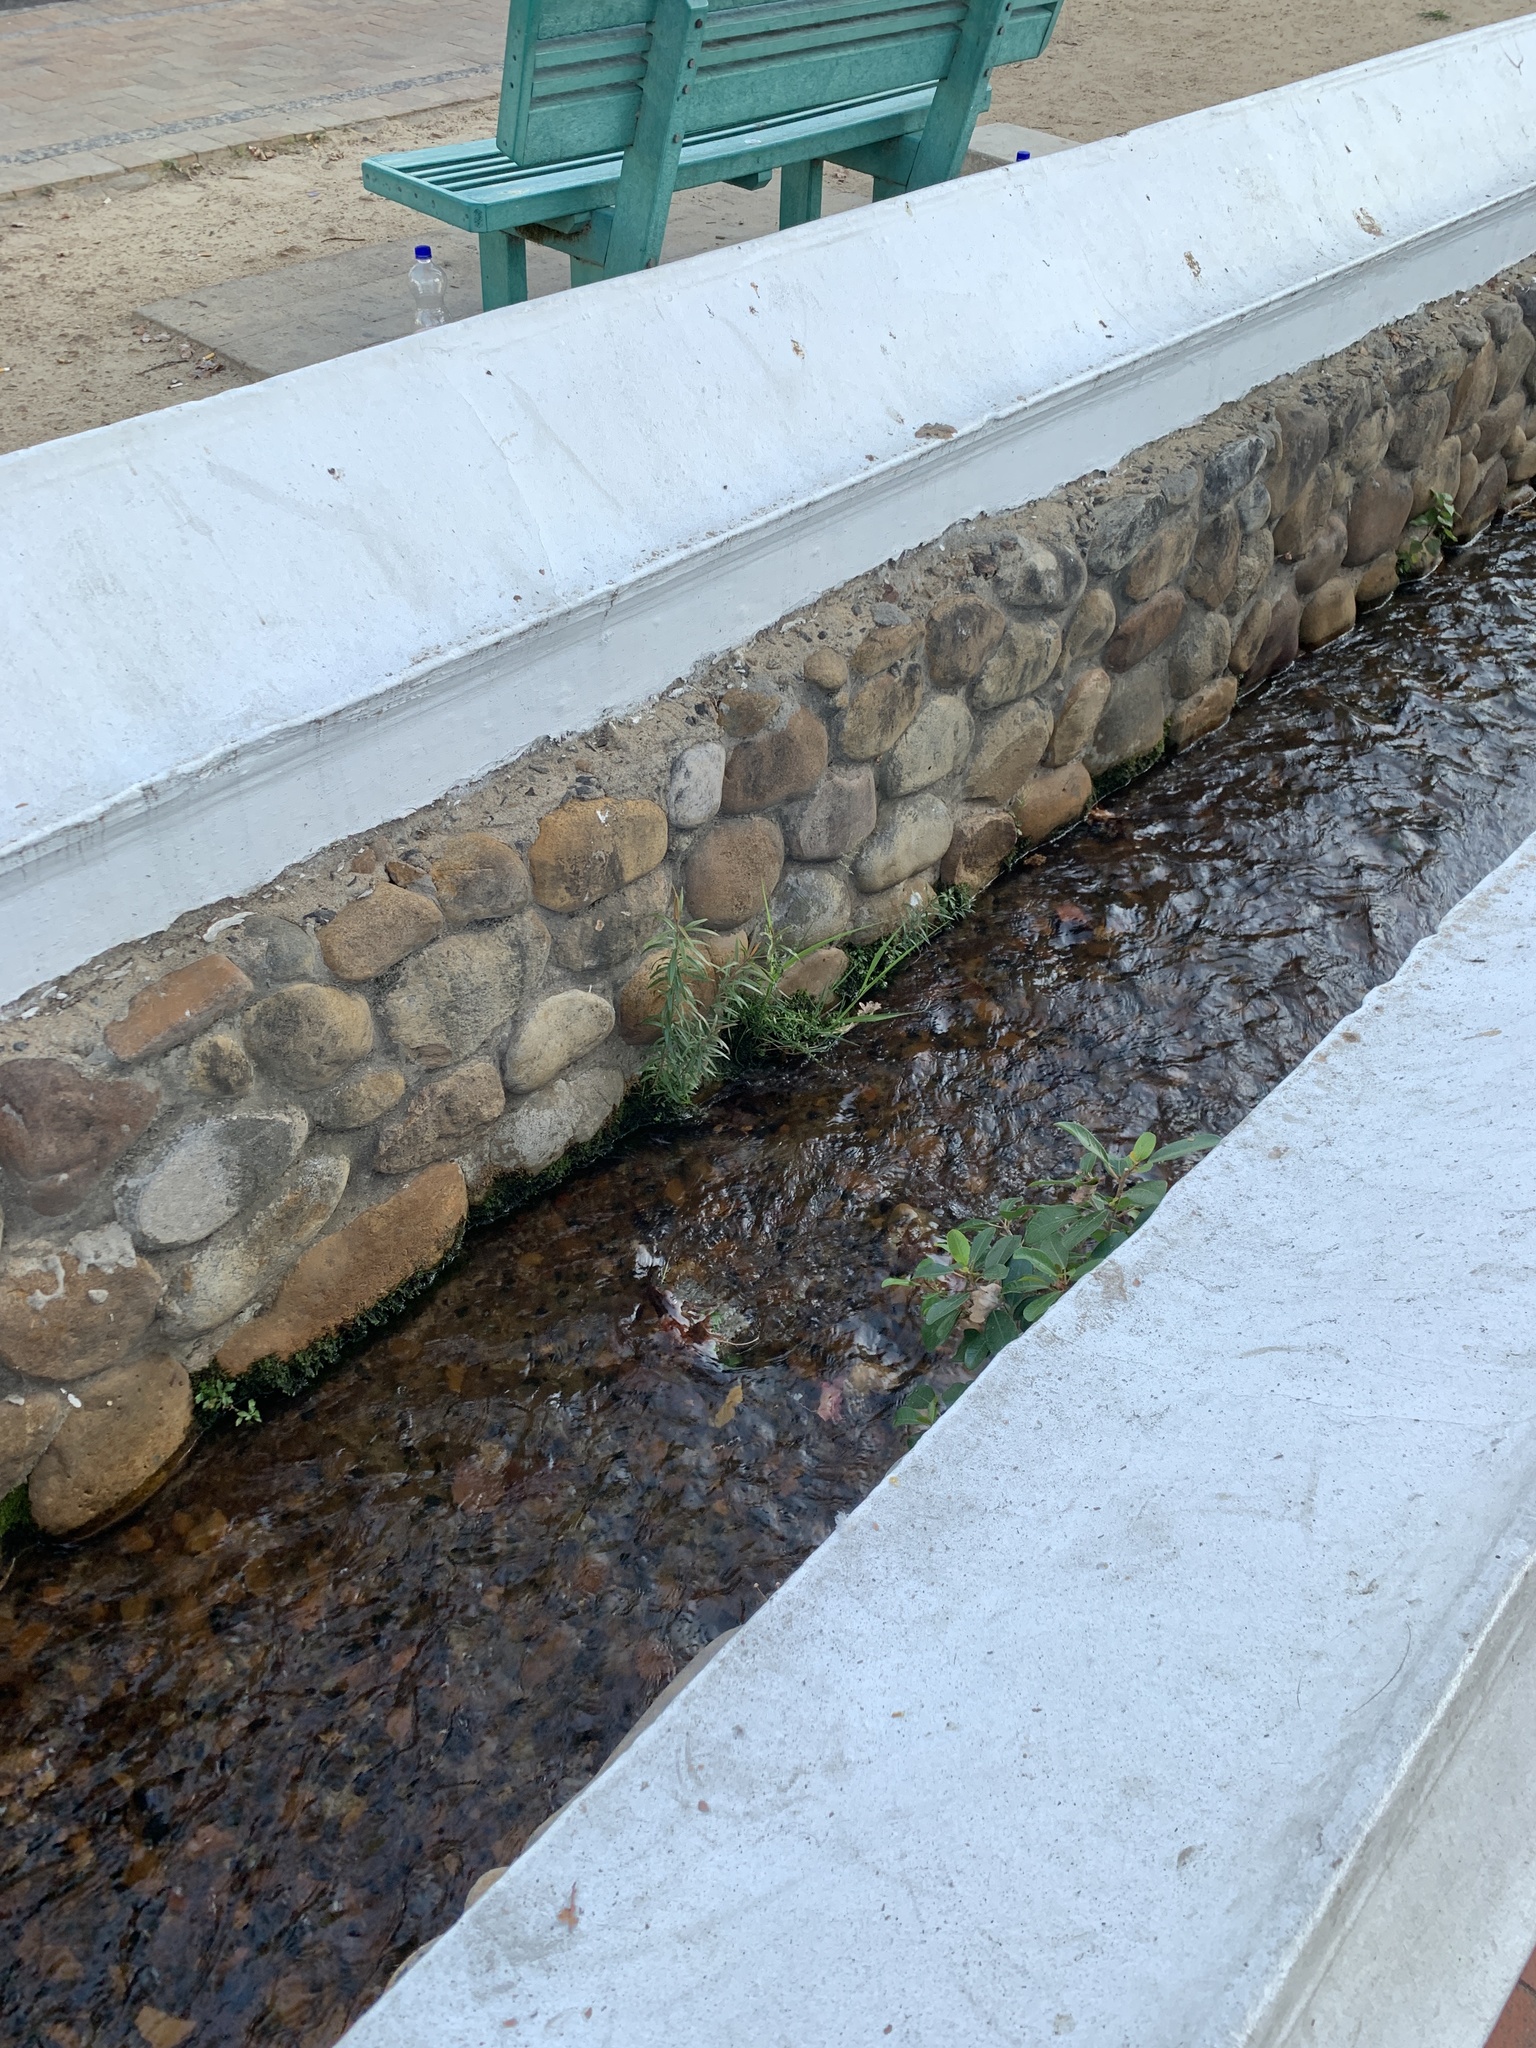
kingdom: Plantae
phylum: Tracheophyta
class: Magnoliopsida
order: Myrtales
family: Myrtaceae
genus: Callistemon
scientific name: Callistemon viminalis
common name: Drooping bottlebrush
